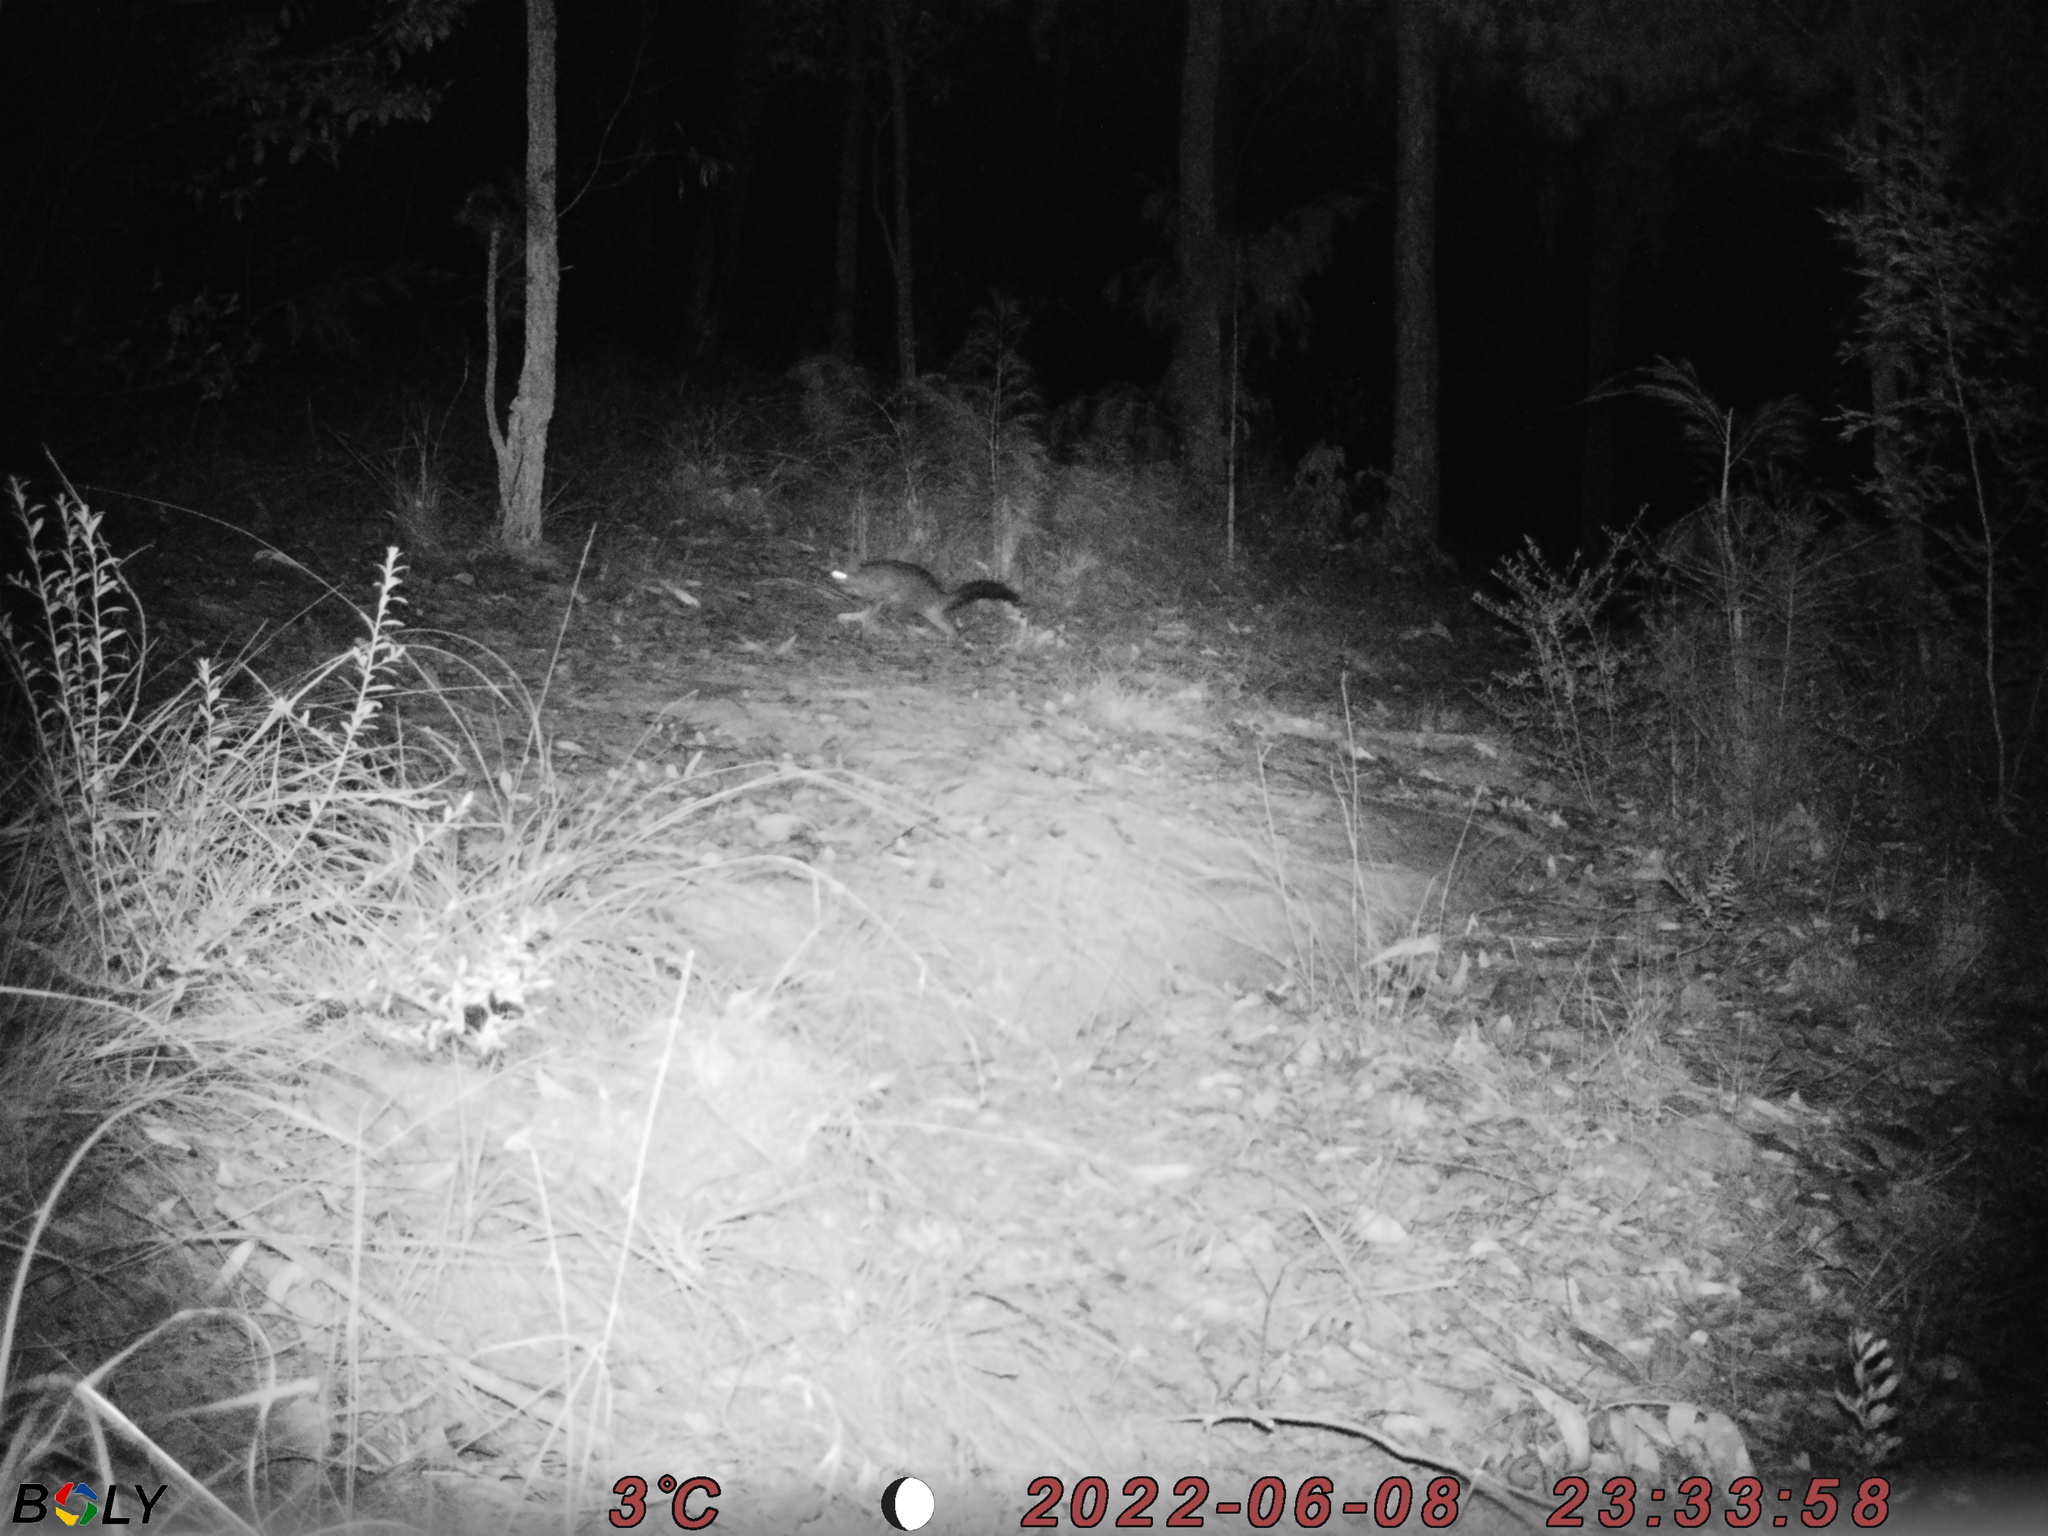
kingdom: Animalia
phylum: Chordata
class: Mammalia
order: Diprotodontia
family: Phalangeridae
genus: Trichosurus
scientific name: Trichosurus vulpecula
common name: Common brushtail
